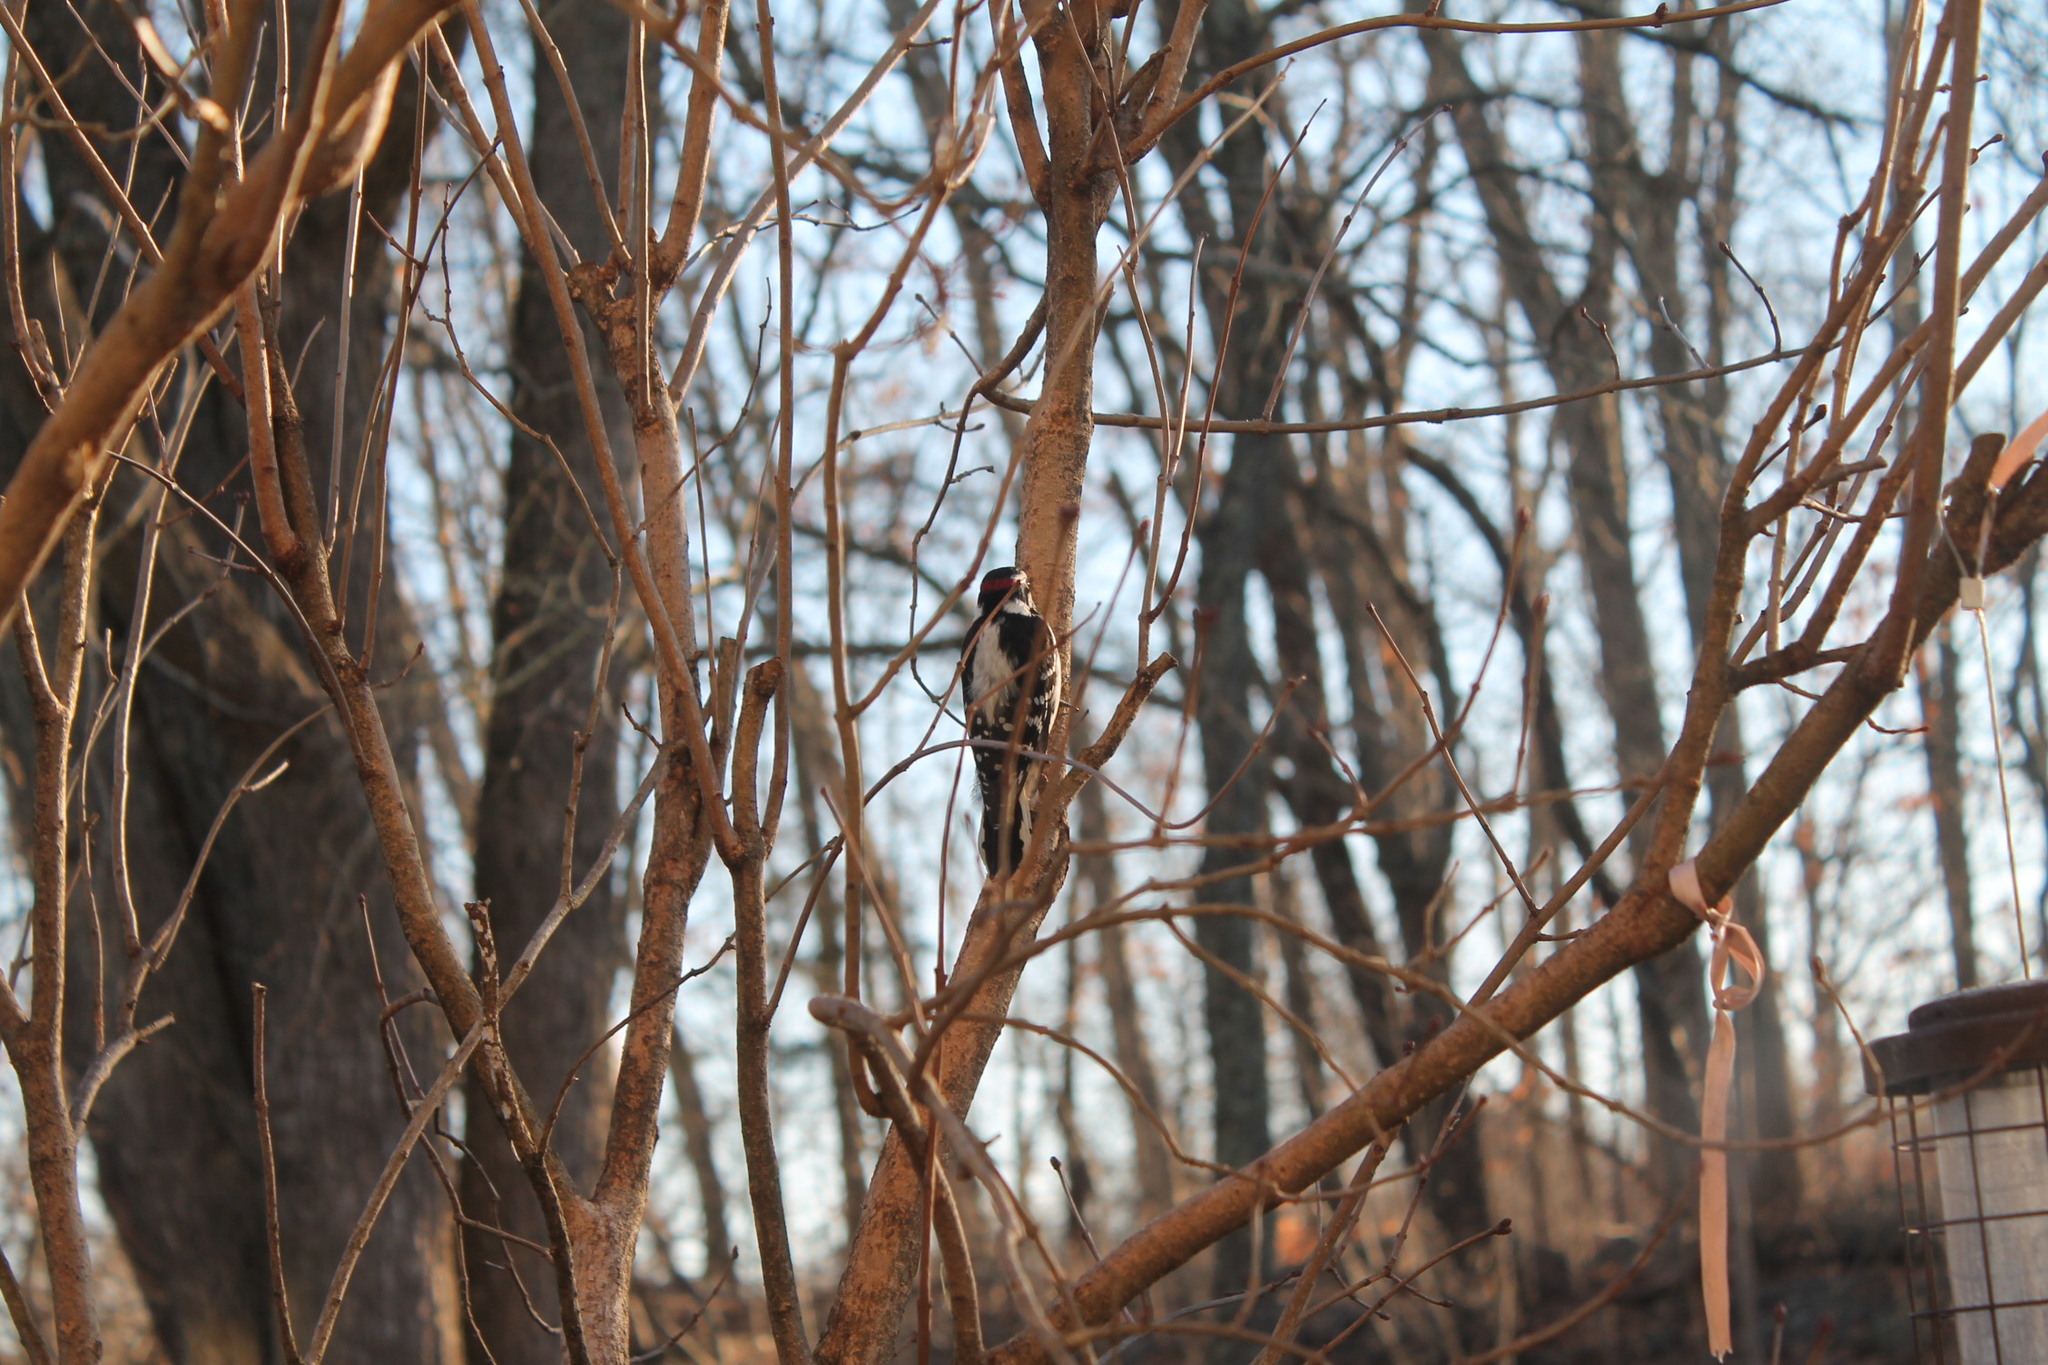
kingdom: Animalia
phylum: Chordata
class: Aves
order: Piciformes
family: Picidae
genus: Dryobates
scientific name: Dryobates pubescens
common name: Downy woodpecker
